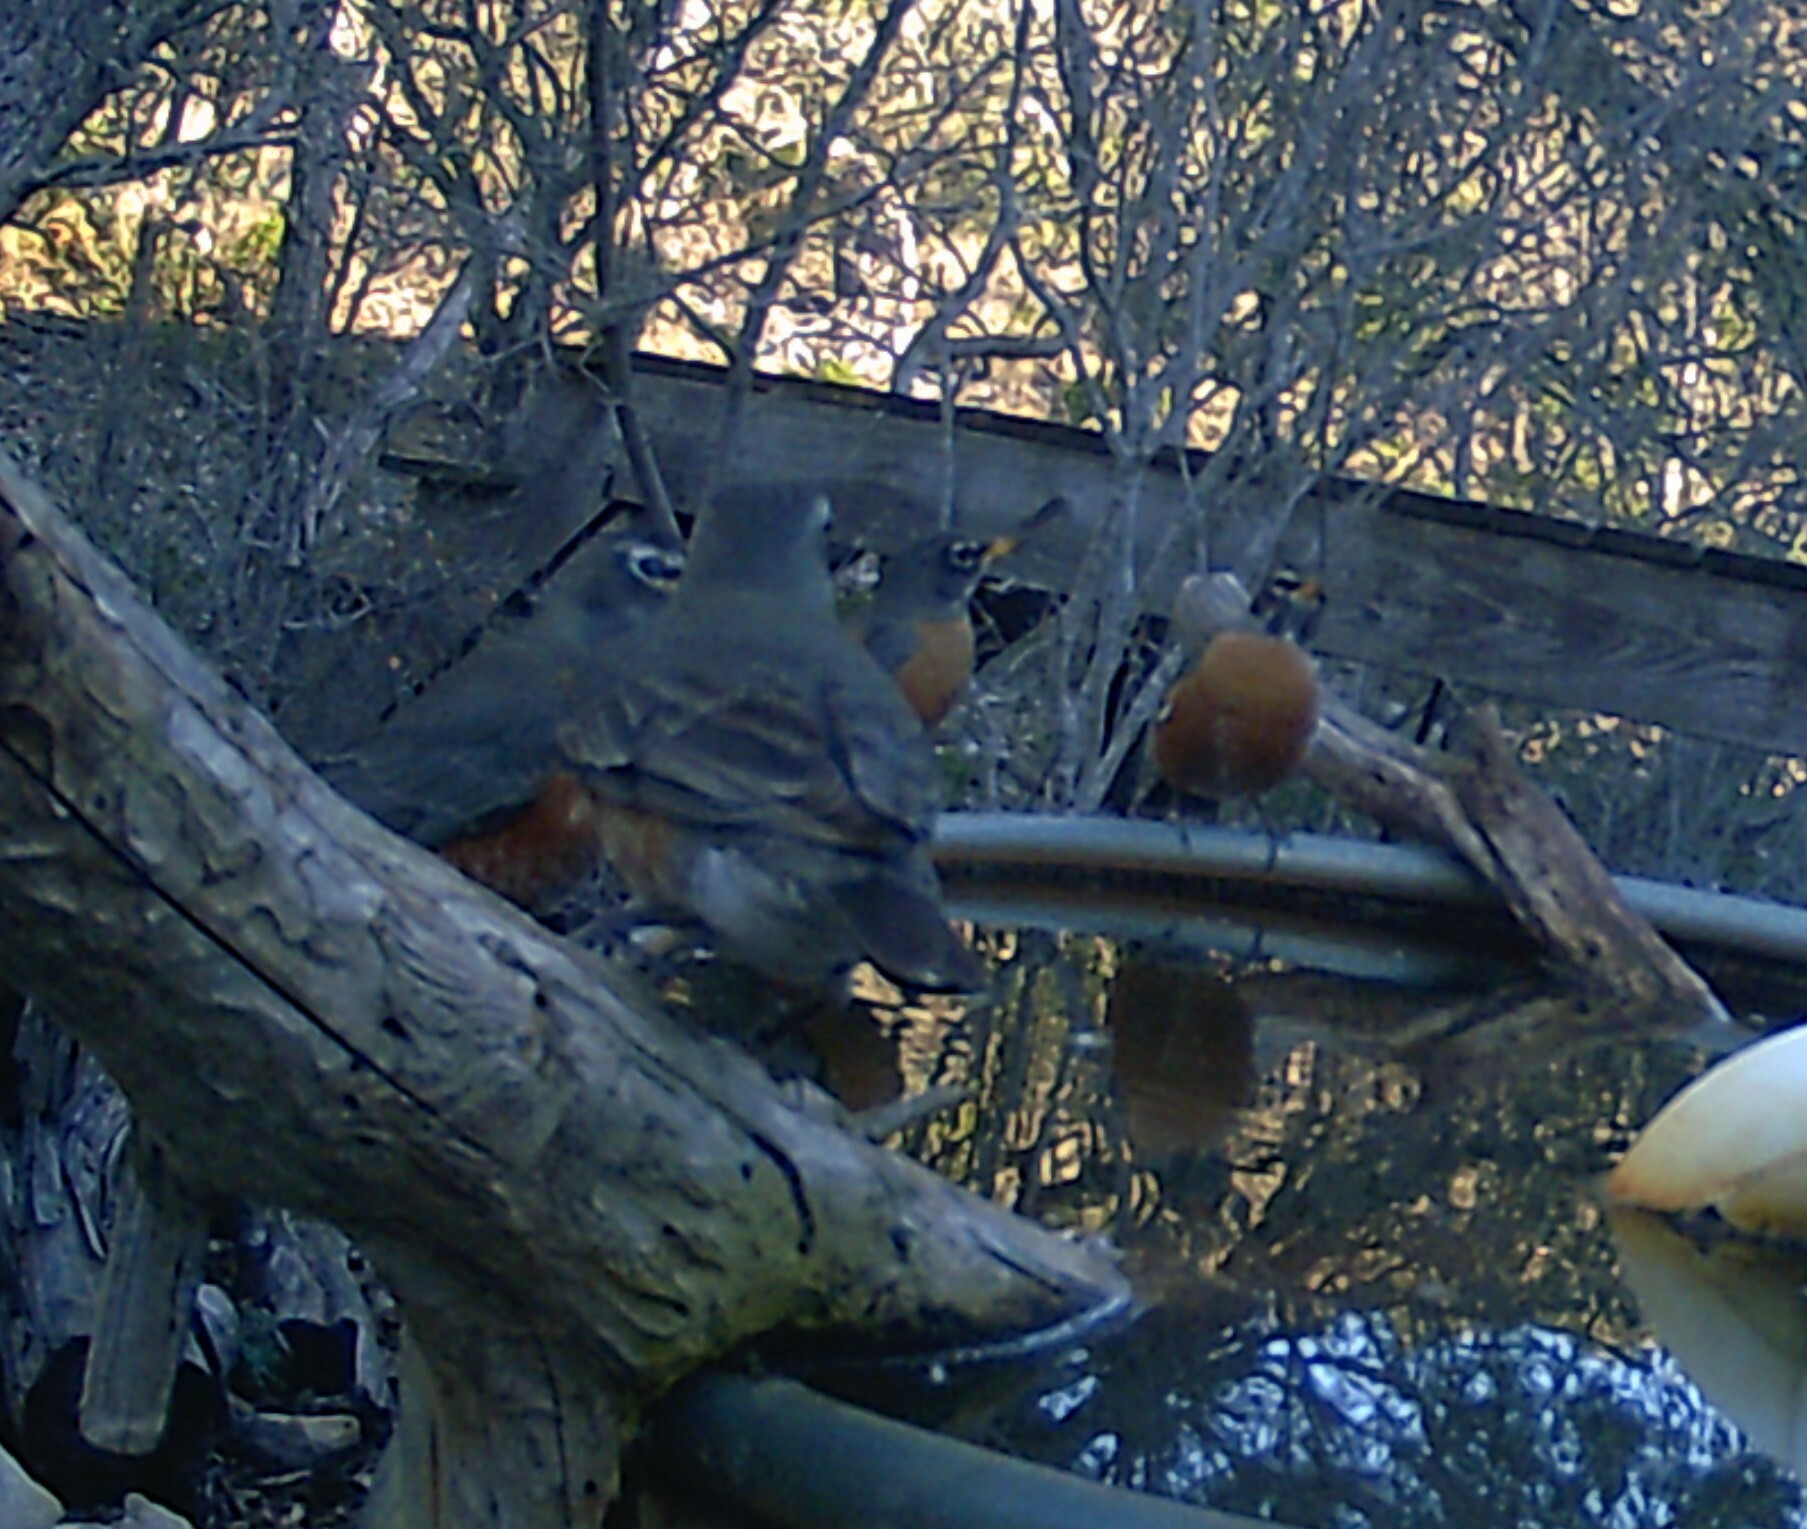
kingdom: Animalia
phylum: Chordata
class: Aves
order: Passeriformes
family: Turdidae
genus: Turdus
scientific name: Turdus migratorius
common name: American robin
